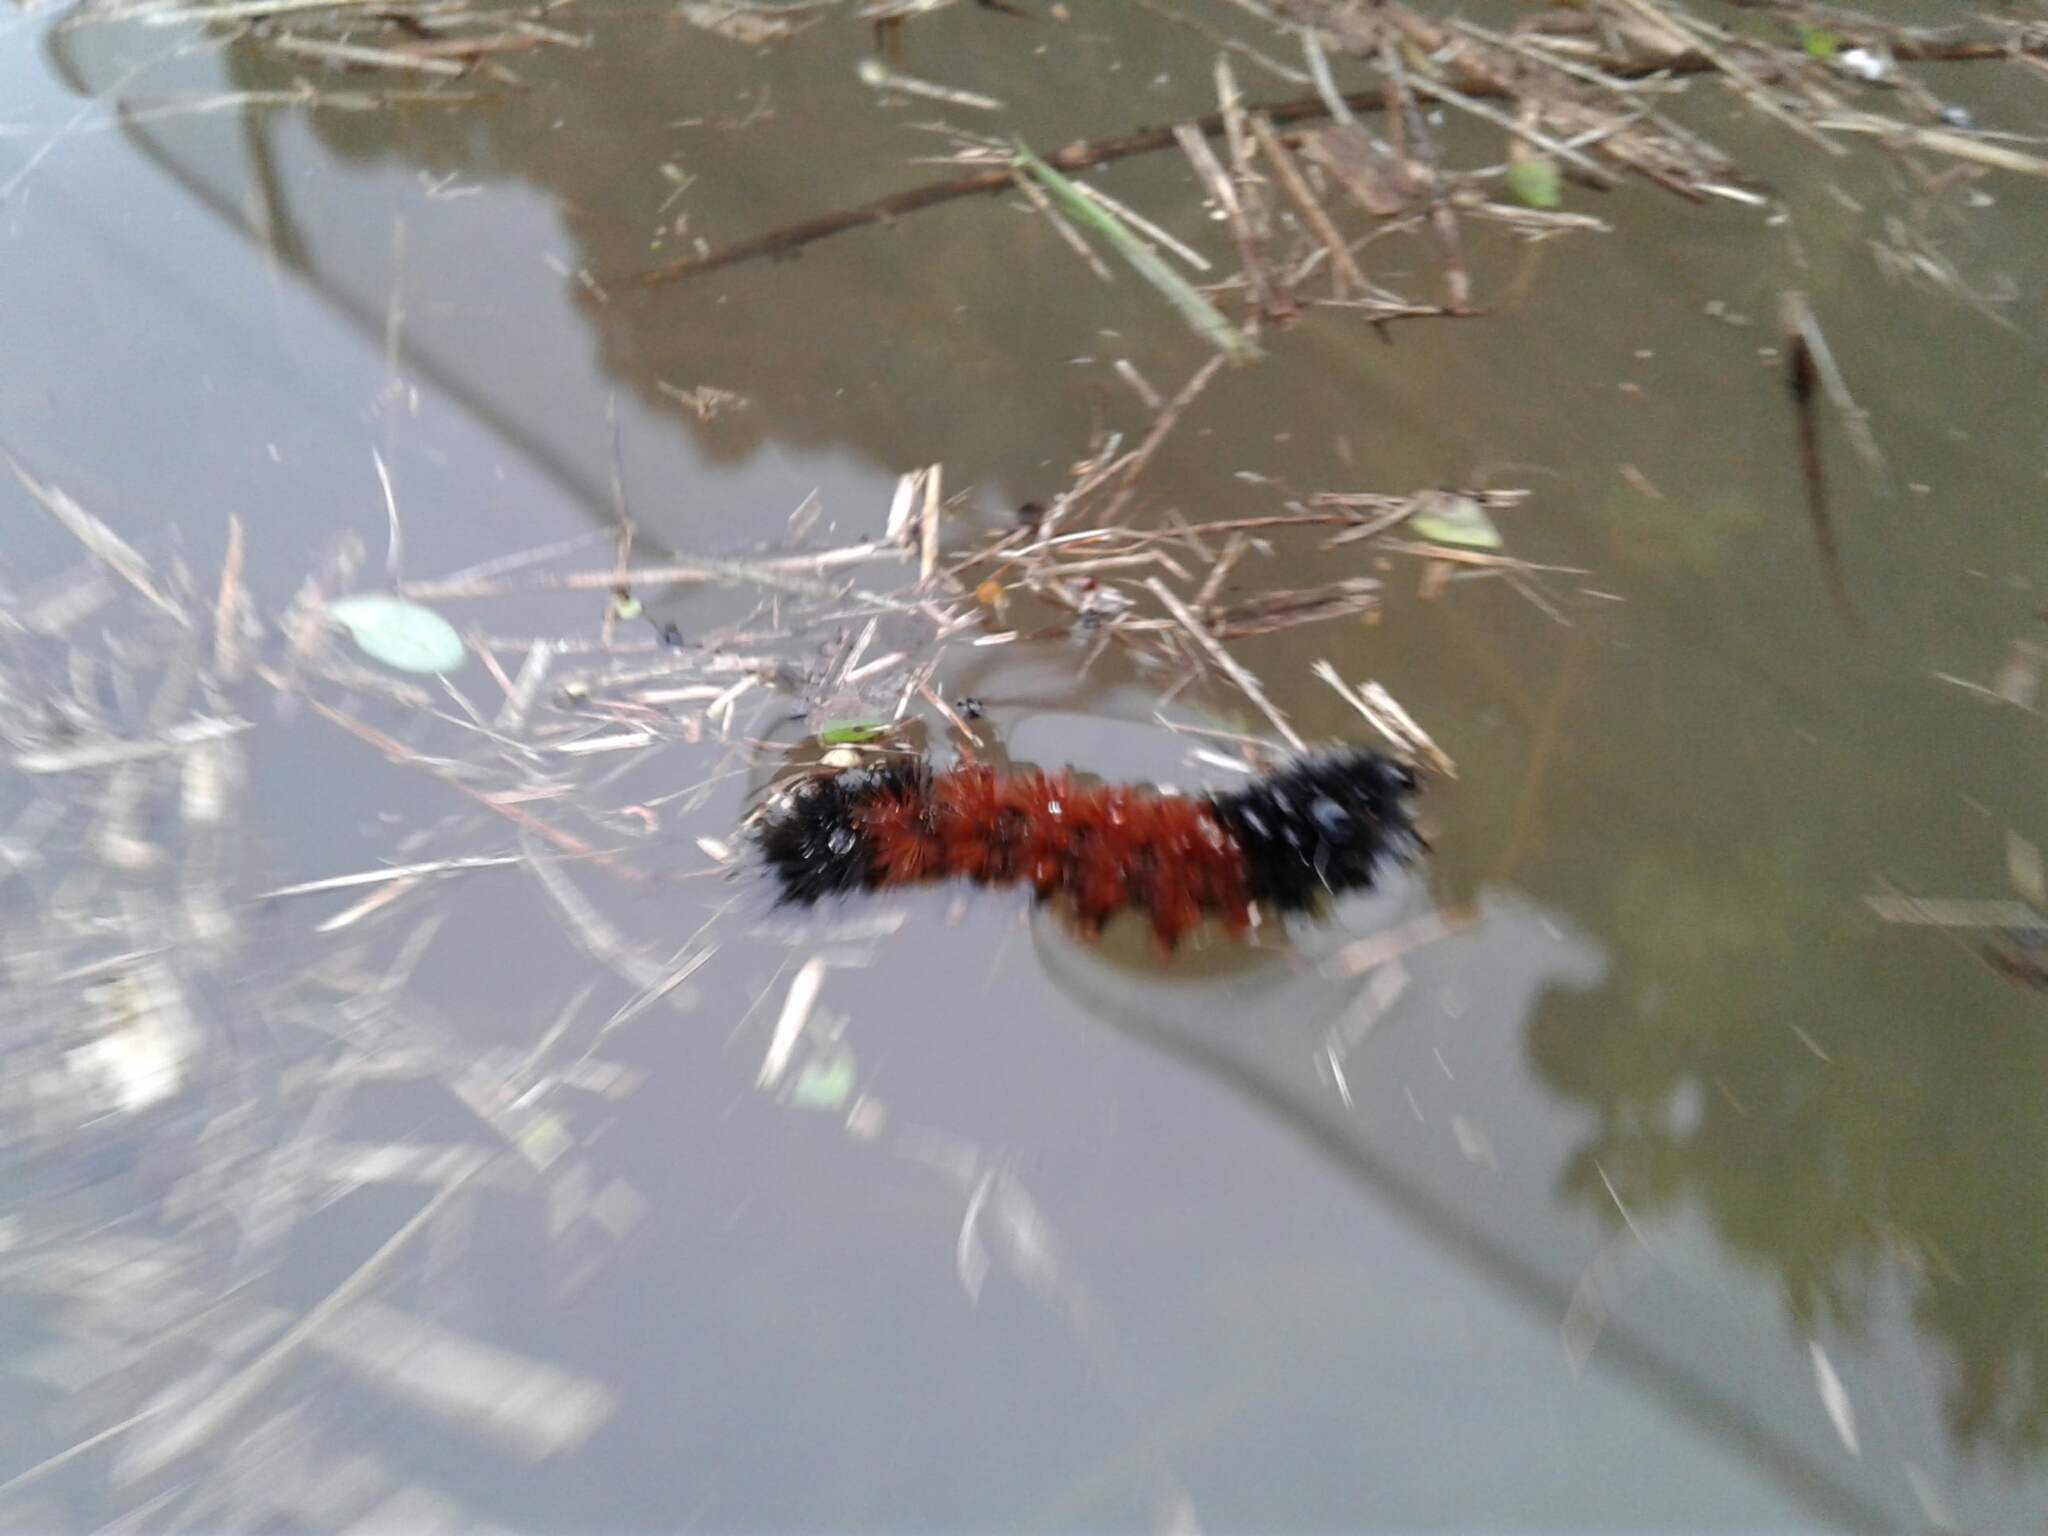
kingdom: Animalia
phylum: Arthropoda
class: Insecta
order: Lepidoptera
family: Erebidae
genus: Pyrrharctia
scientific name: Pyrrharctia isabella
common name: Isabella tiger moth
